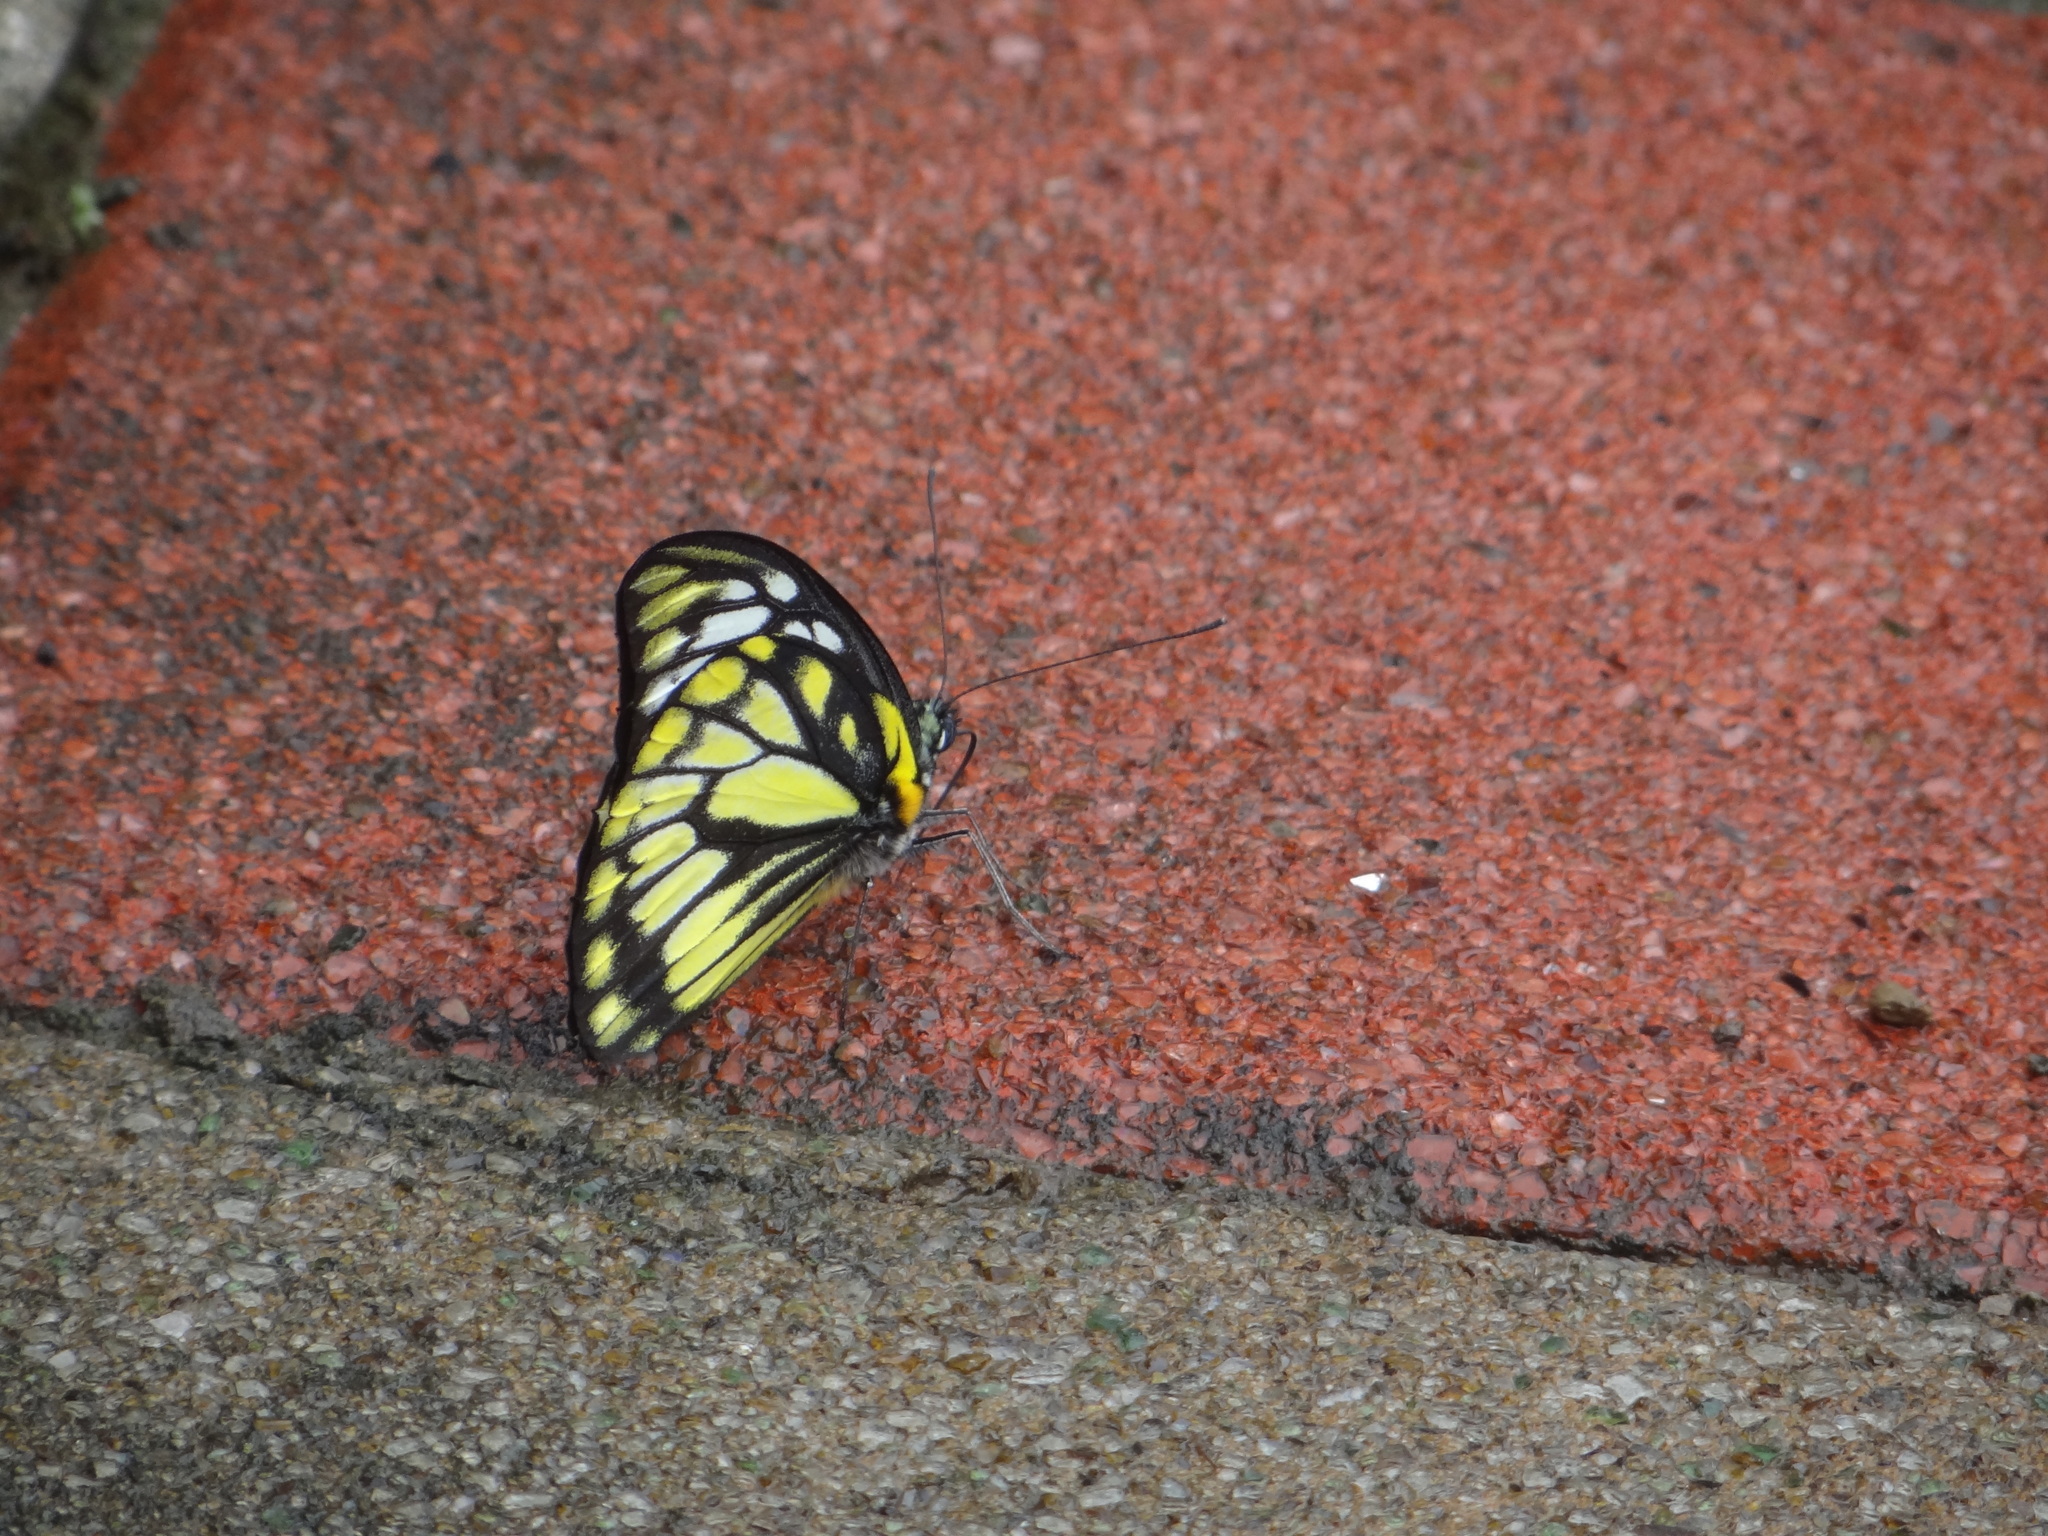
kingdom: Animalia
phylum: Arthropoda
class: Insecta
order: Lepidoptera
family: Pieridae
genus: Prioneris
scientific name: Prioneris thestylis
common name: Spotted sawtooth
